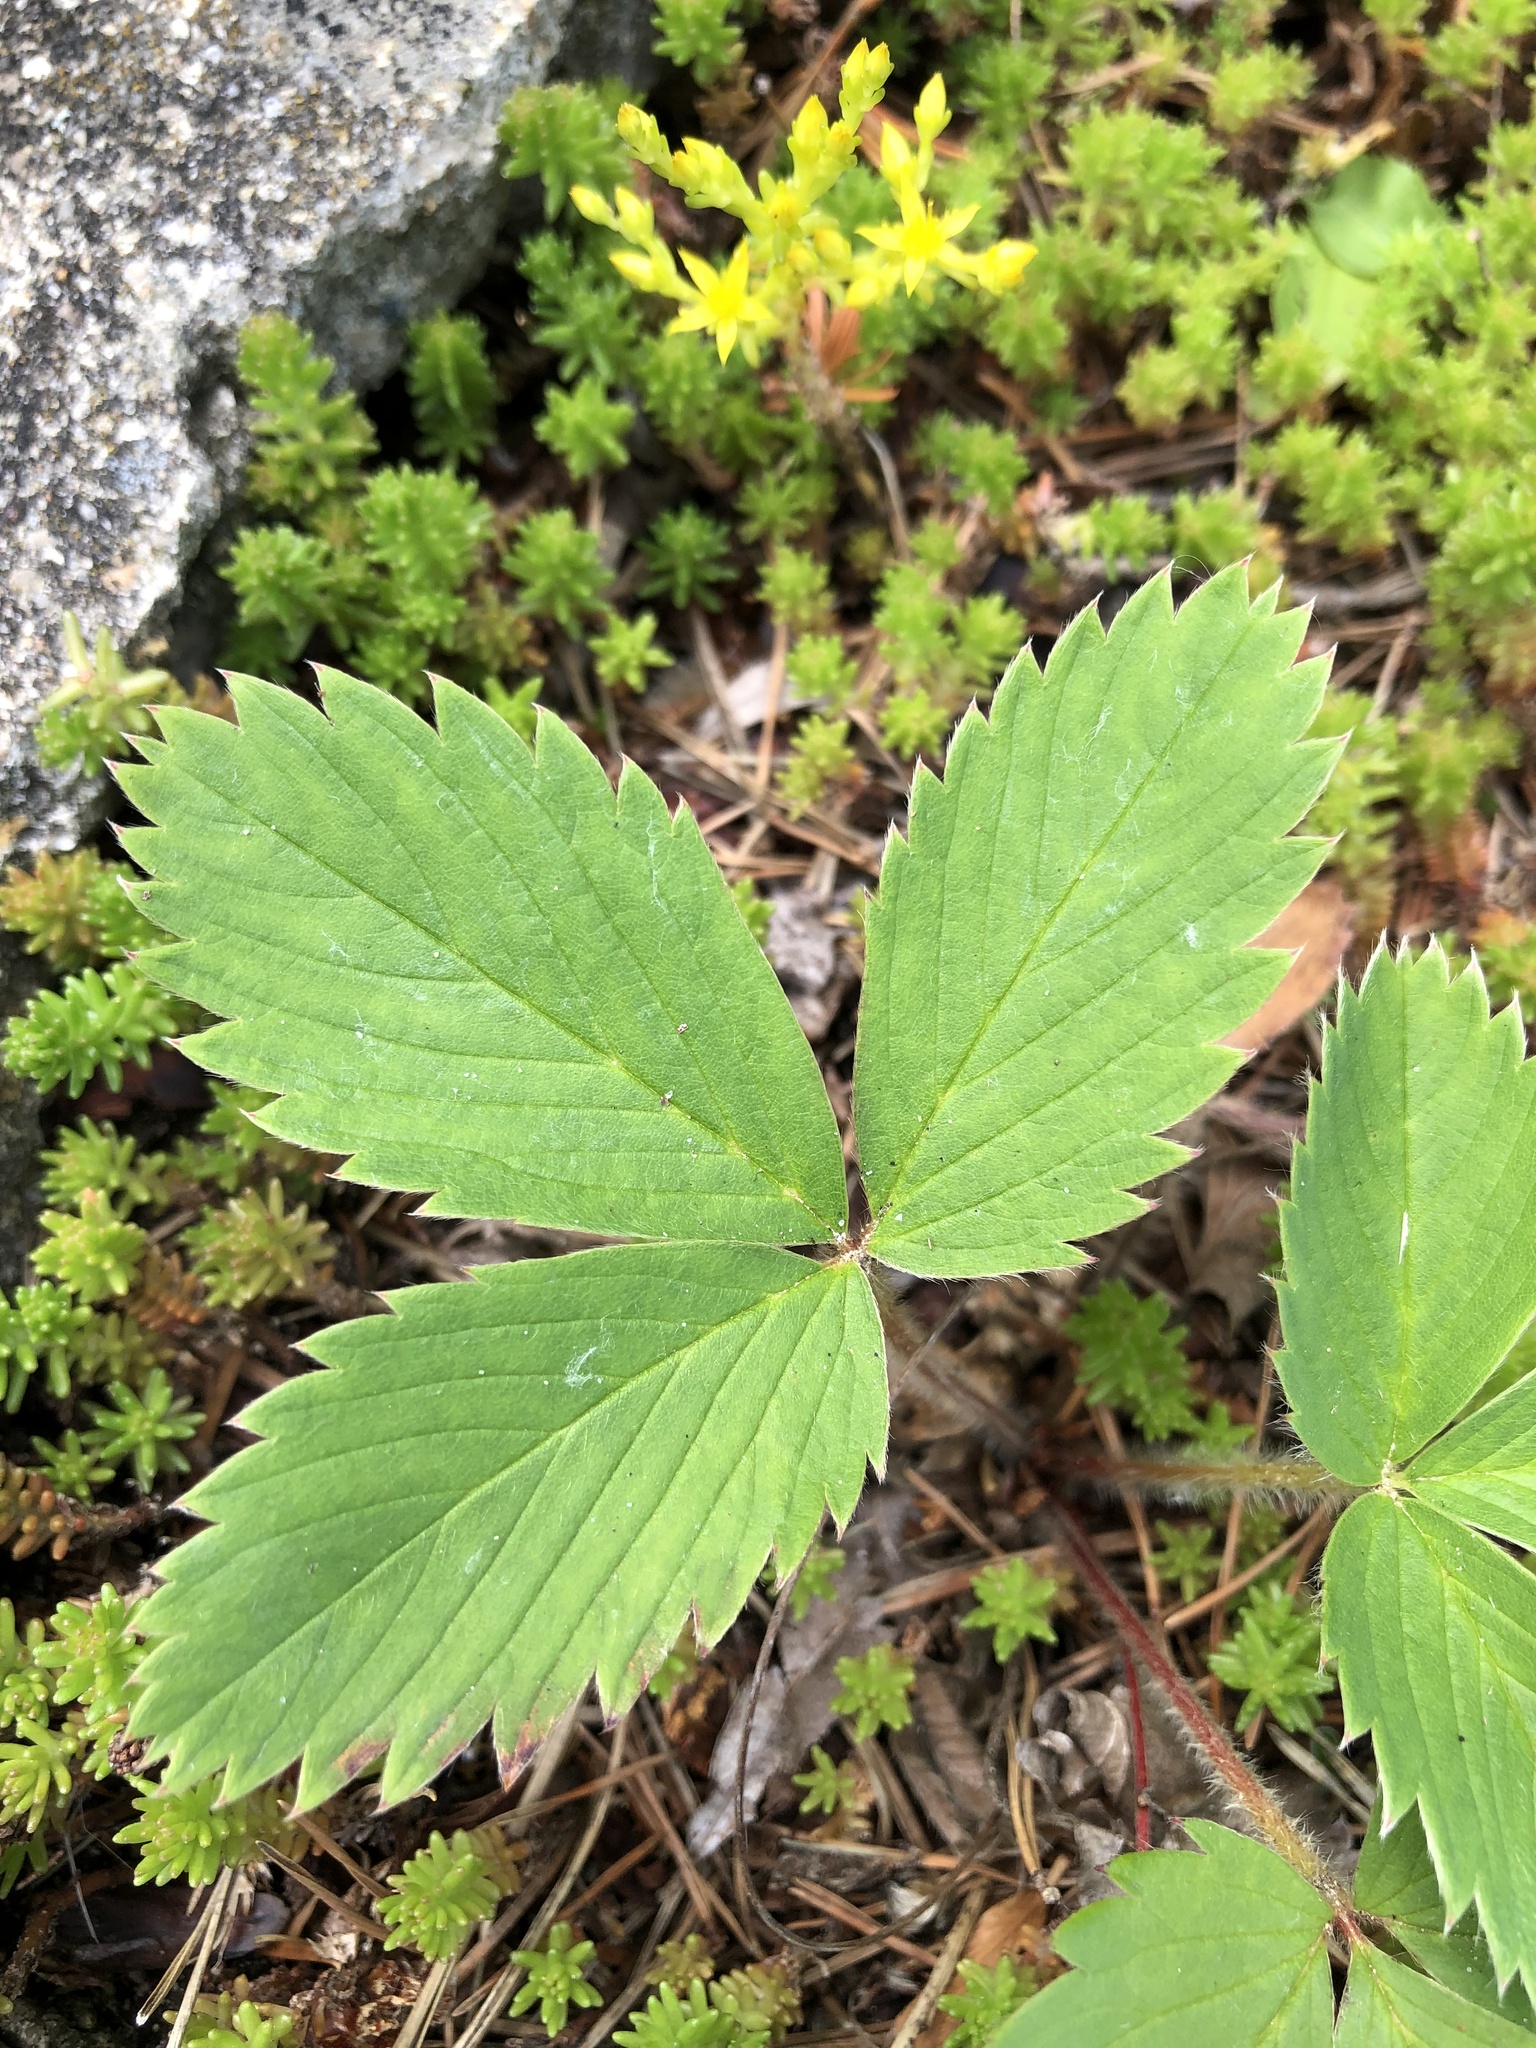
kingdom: Plantae
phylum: Tracheophyta
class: Magnoliopsida
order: Rosales
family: Rosaceae
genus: Fragaria
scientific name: Fragaria virginiana
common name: Thickleaved wild strawberry
